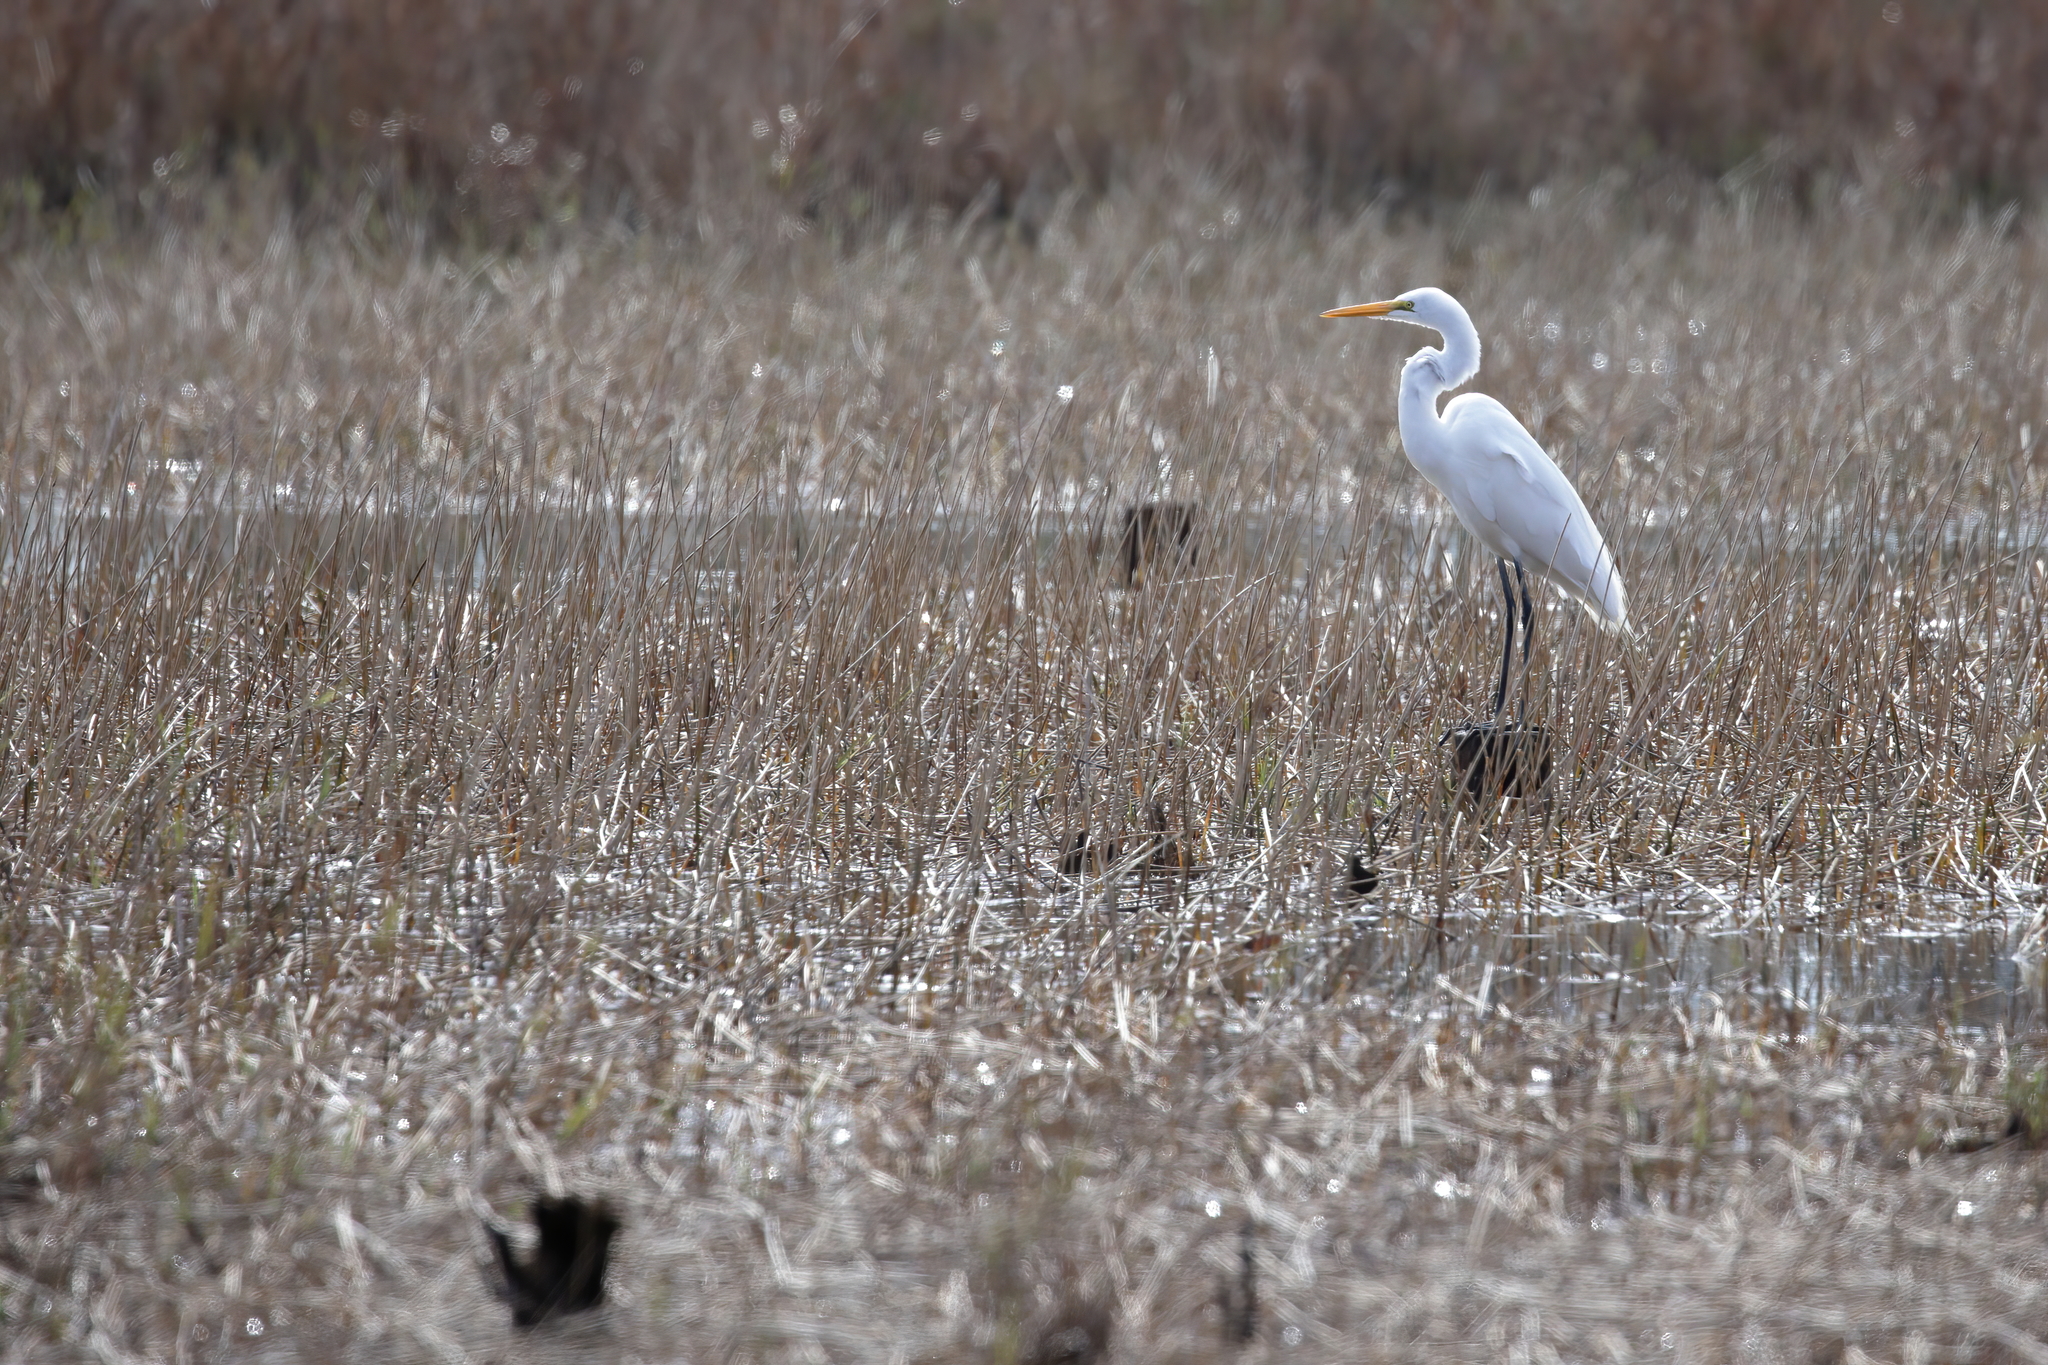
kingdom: Animalia
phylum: Chordata
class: Aves
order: Pelecaniformes
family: Ardeidae
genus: Ardea
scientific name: Ardea alba
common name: Great egret
